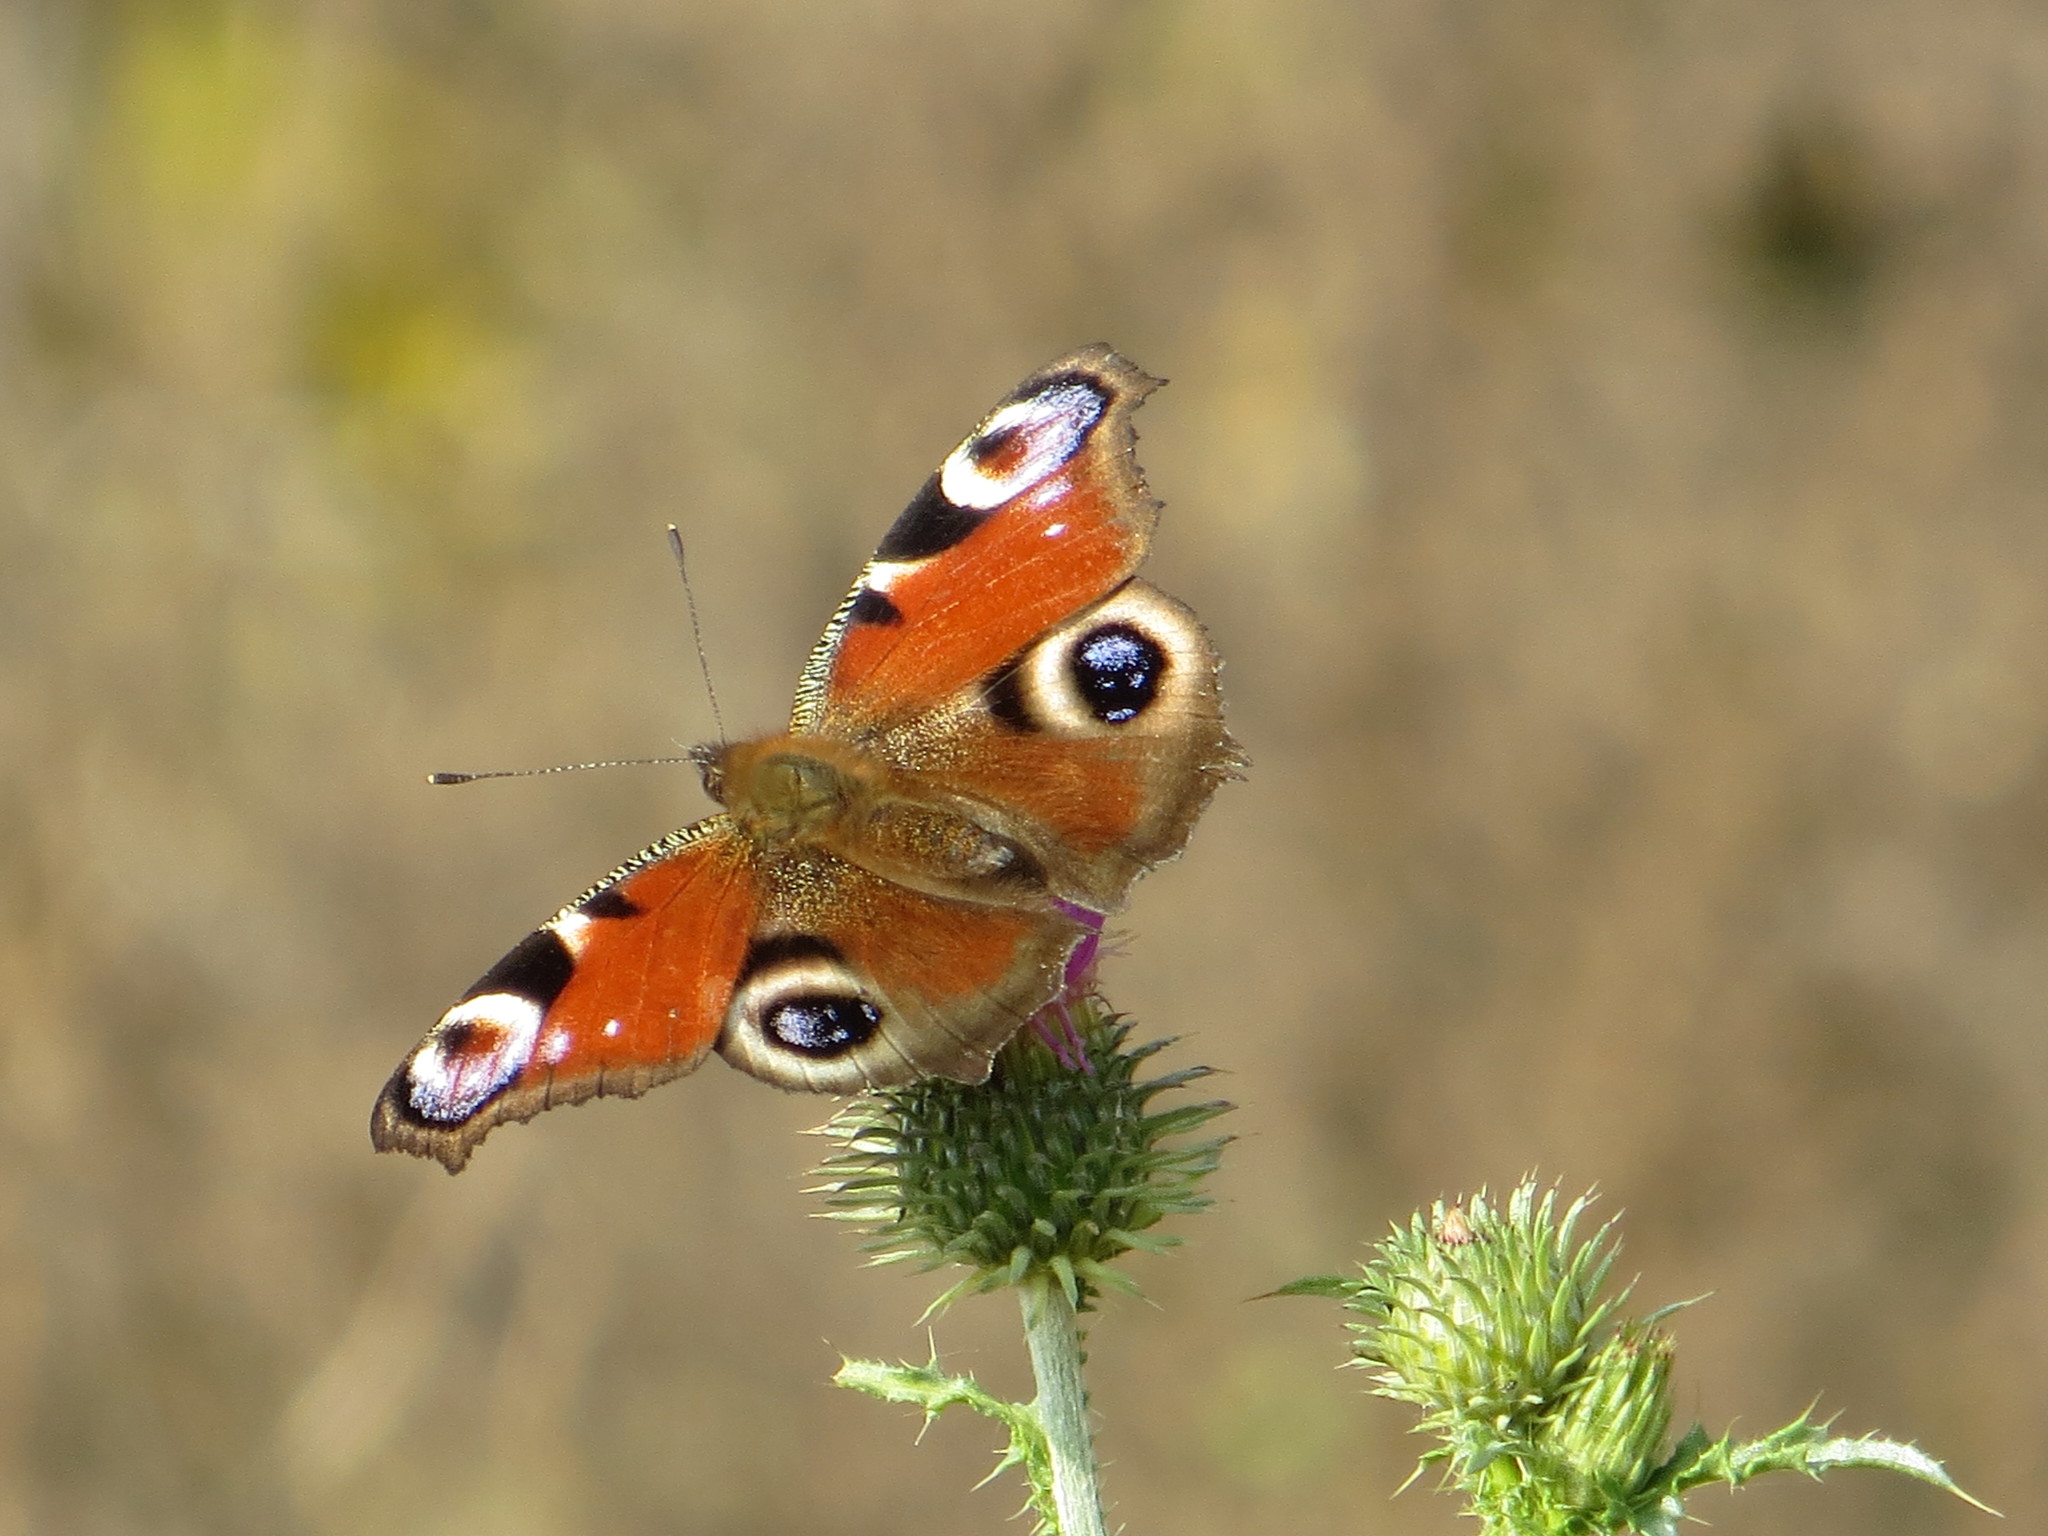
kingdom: Animalia
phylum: Arthropoda
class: Insecta
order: Lepidoptera
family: Nymphalidae
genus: Aglais
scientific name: Aglais io
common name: Peacock
